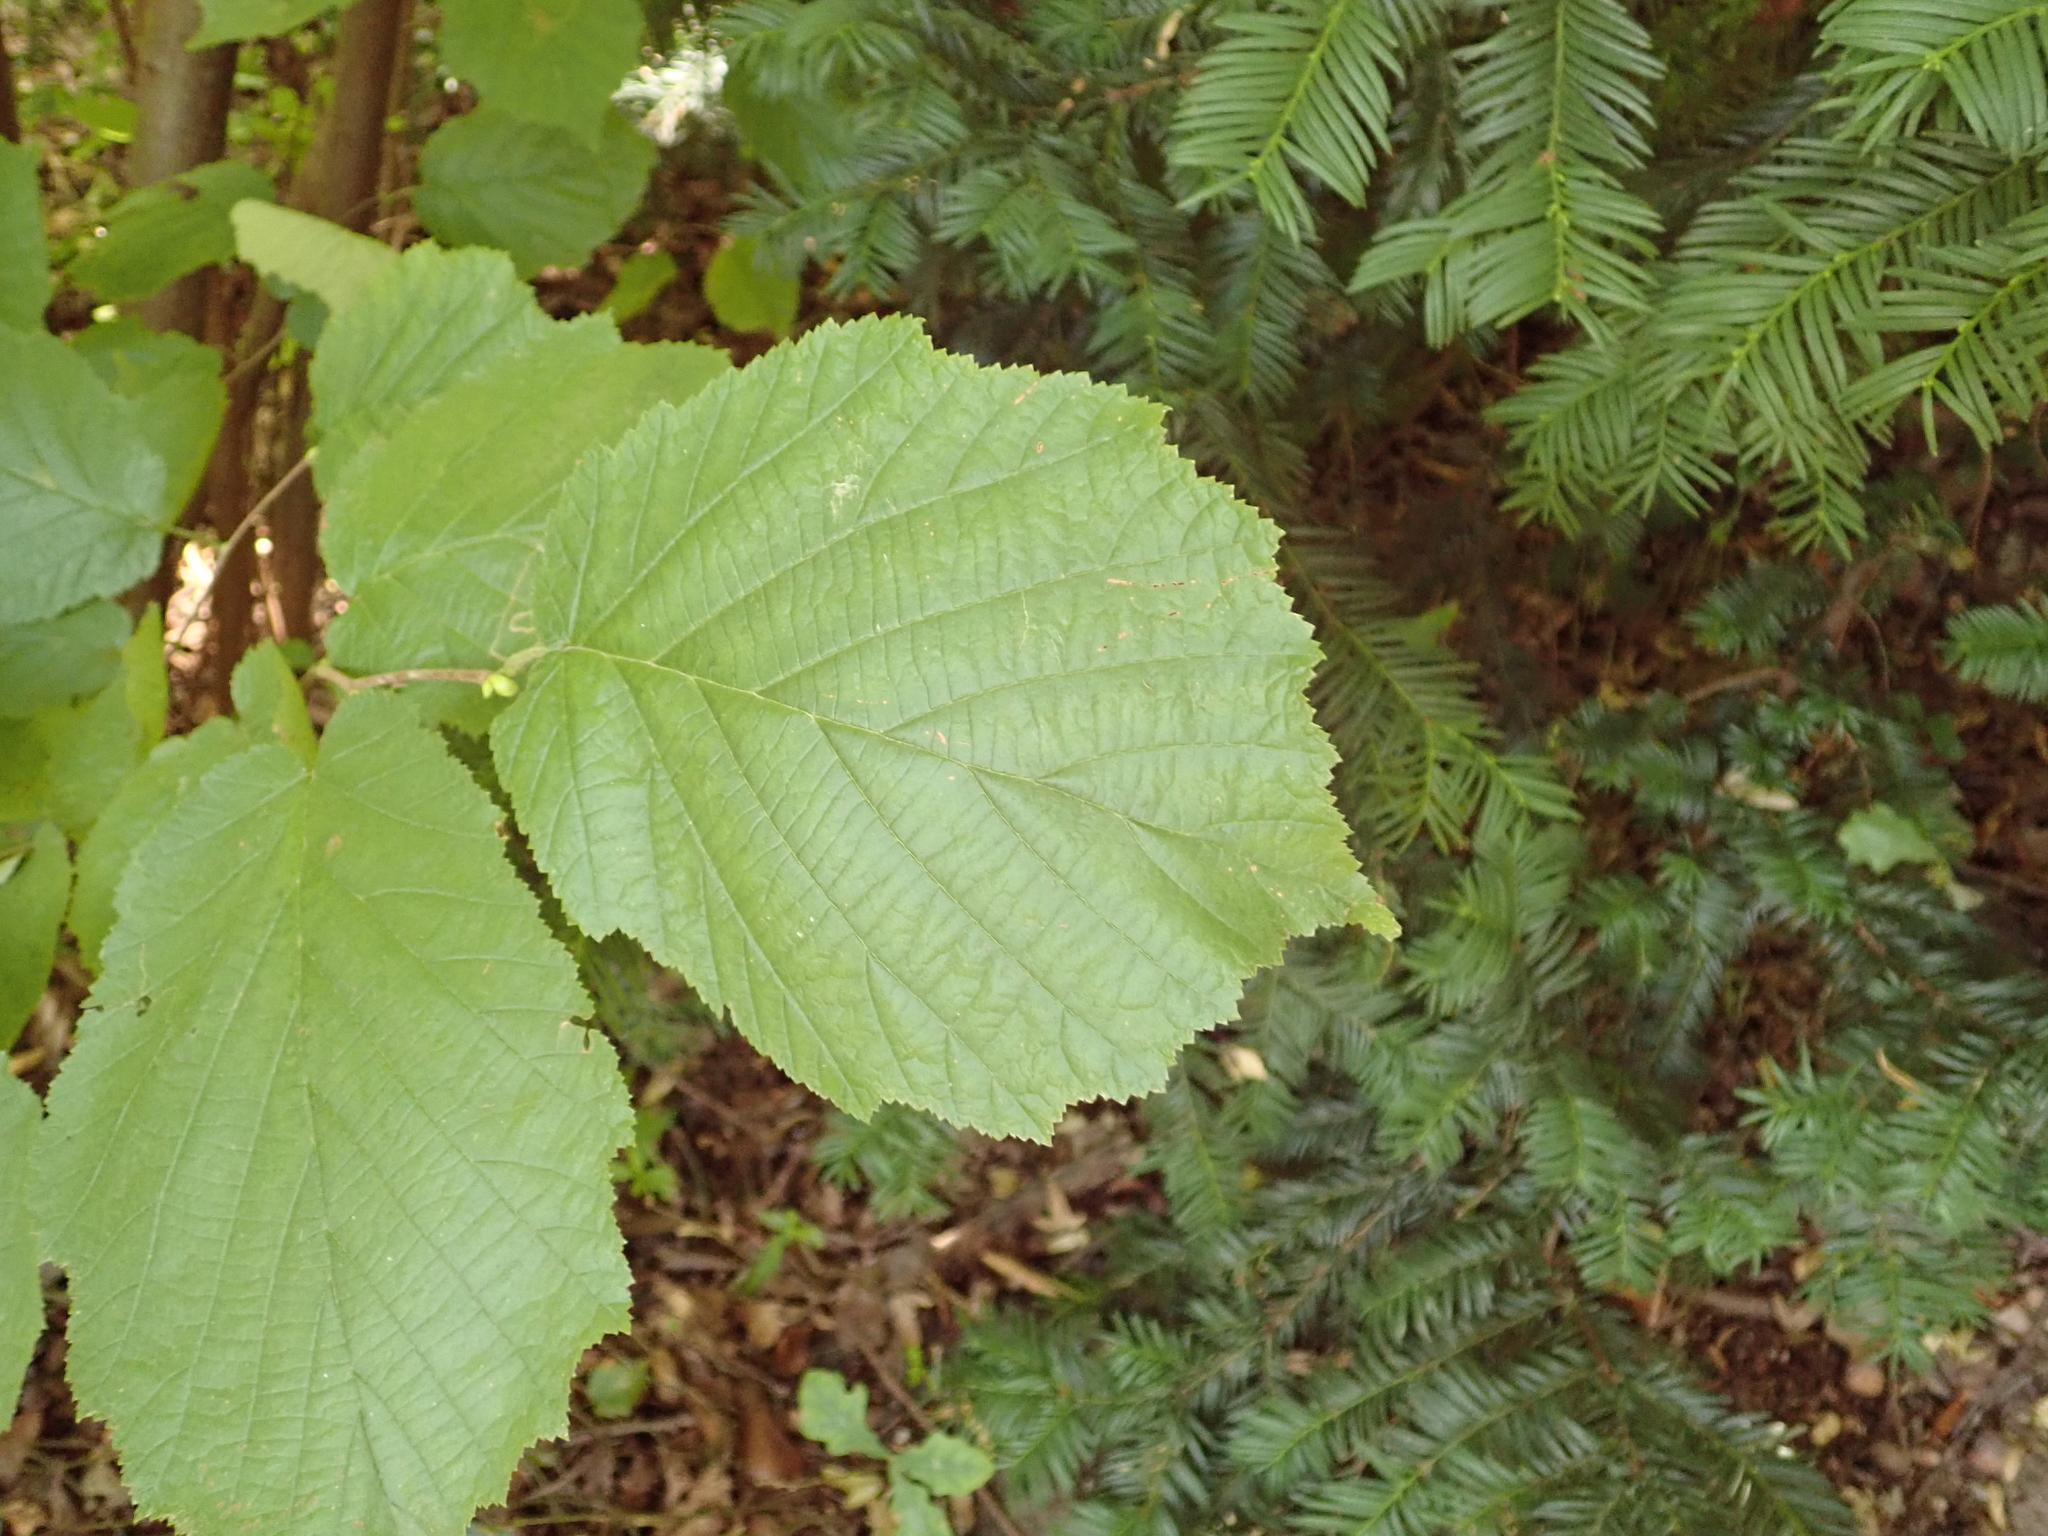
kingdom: Plantae
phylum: Tracheophyta
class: Magnoliopsida
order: Fagales
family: Betulaceae
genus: Corylus
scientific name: Corylus avellana
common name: European hazel
